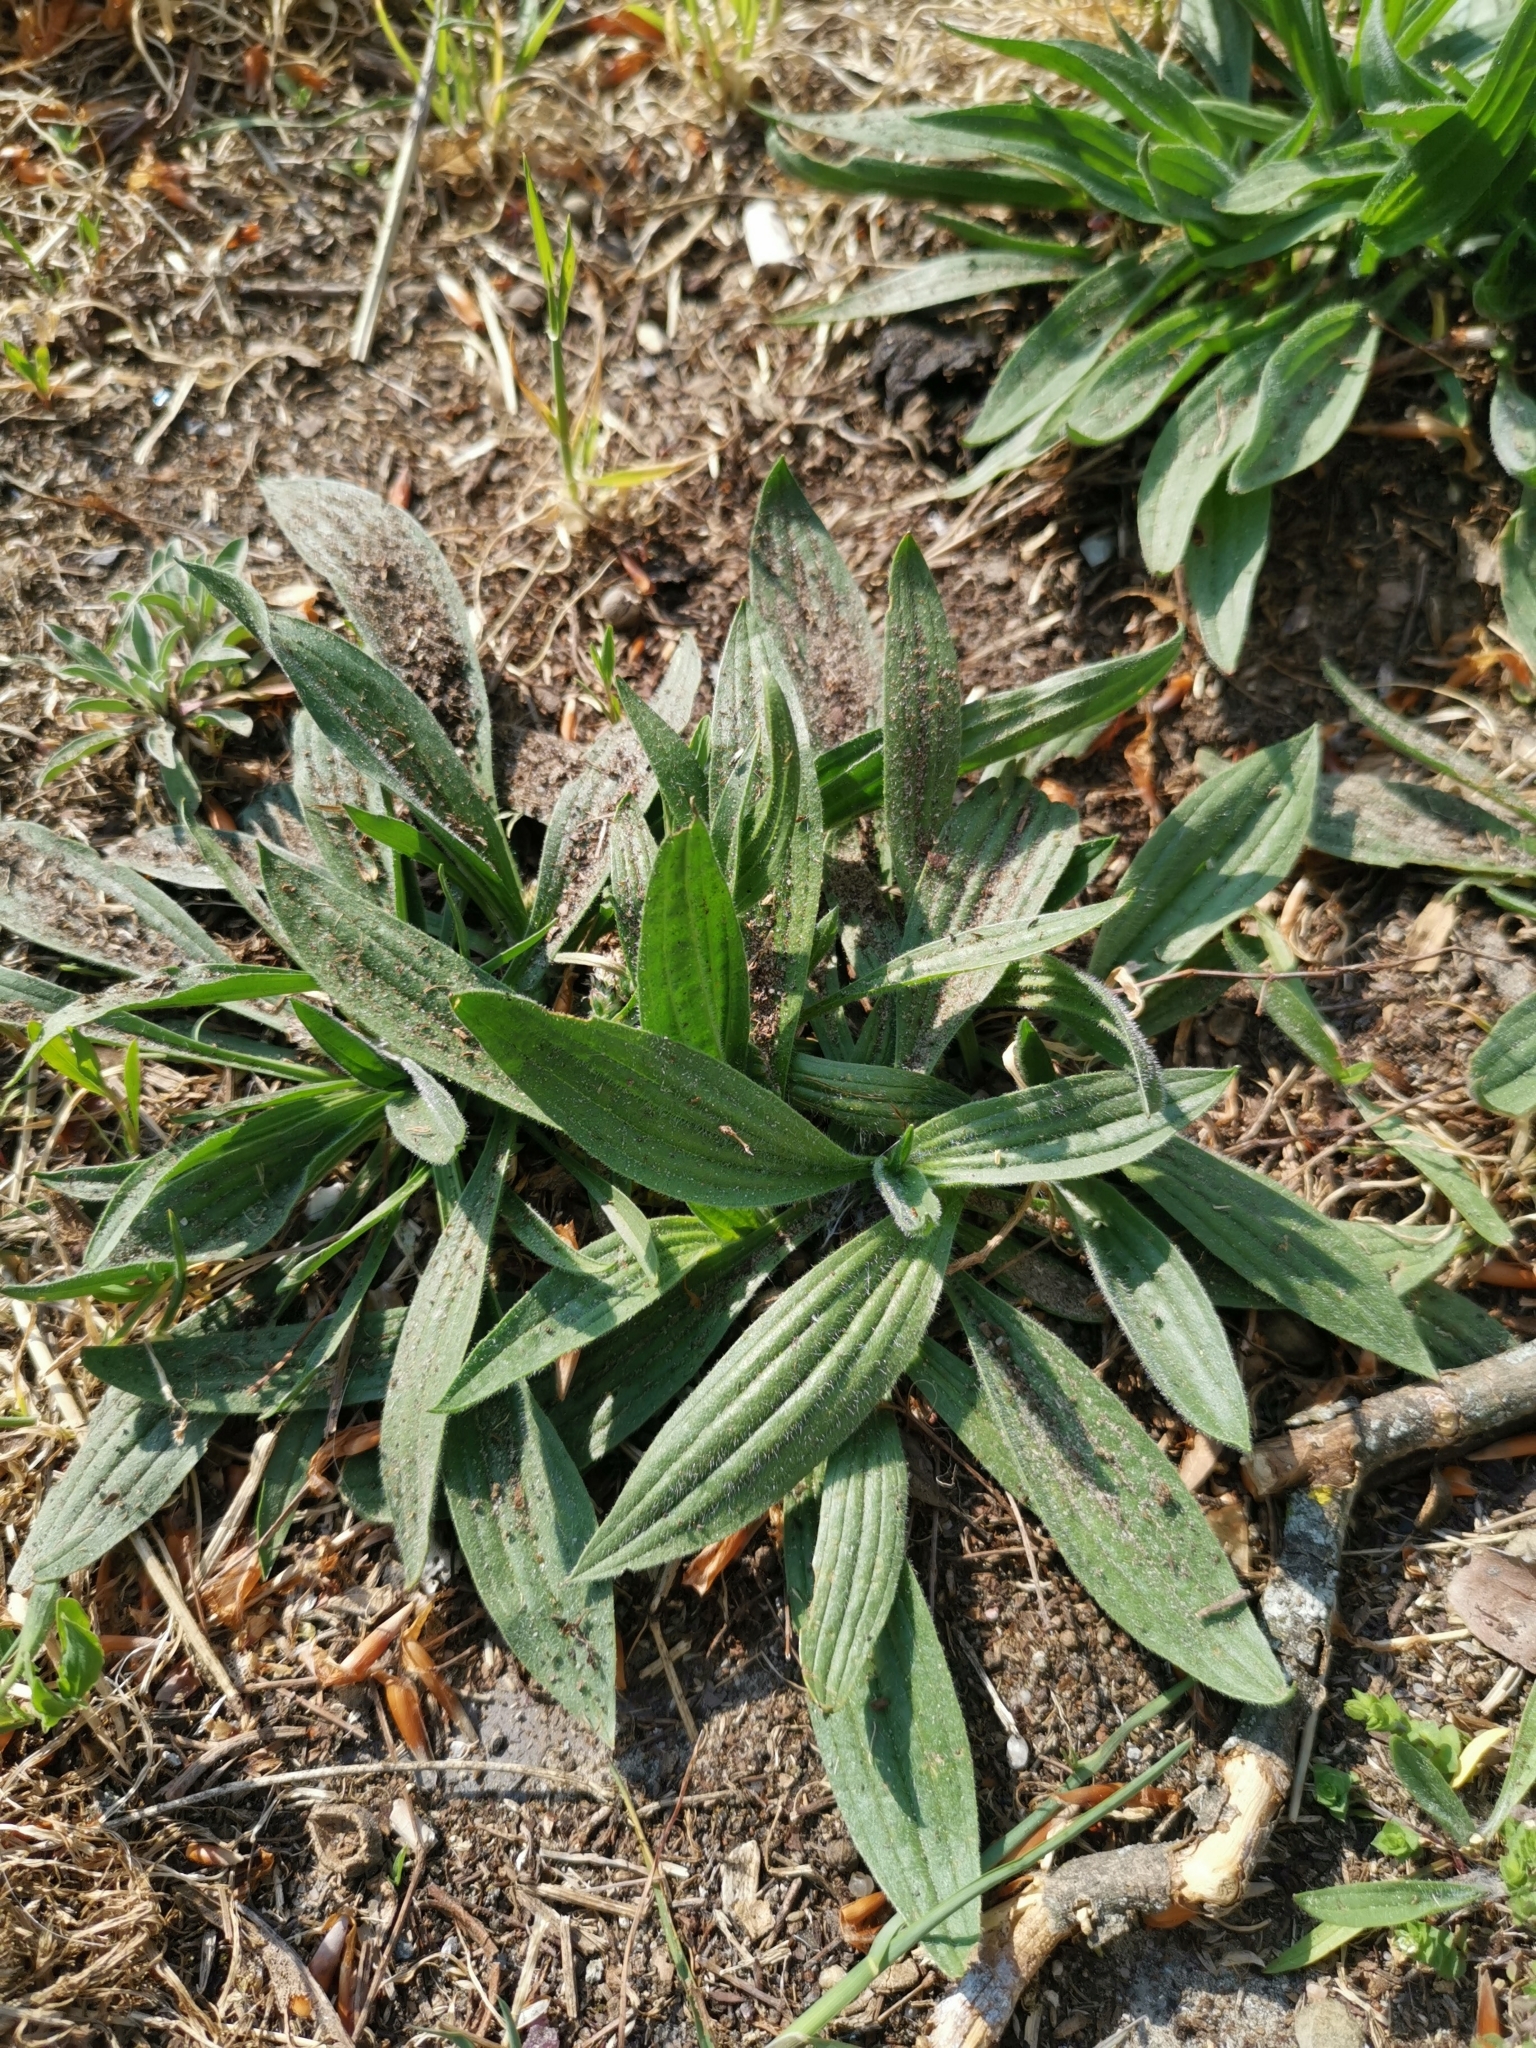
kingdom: Plantae
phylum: Tracheophyta
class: Magnoliopsida
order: Lamiales
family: Plantaginaceae
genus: Plantago
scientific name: Plantago lanceolata
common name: Ribwort plantain
